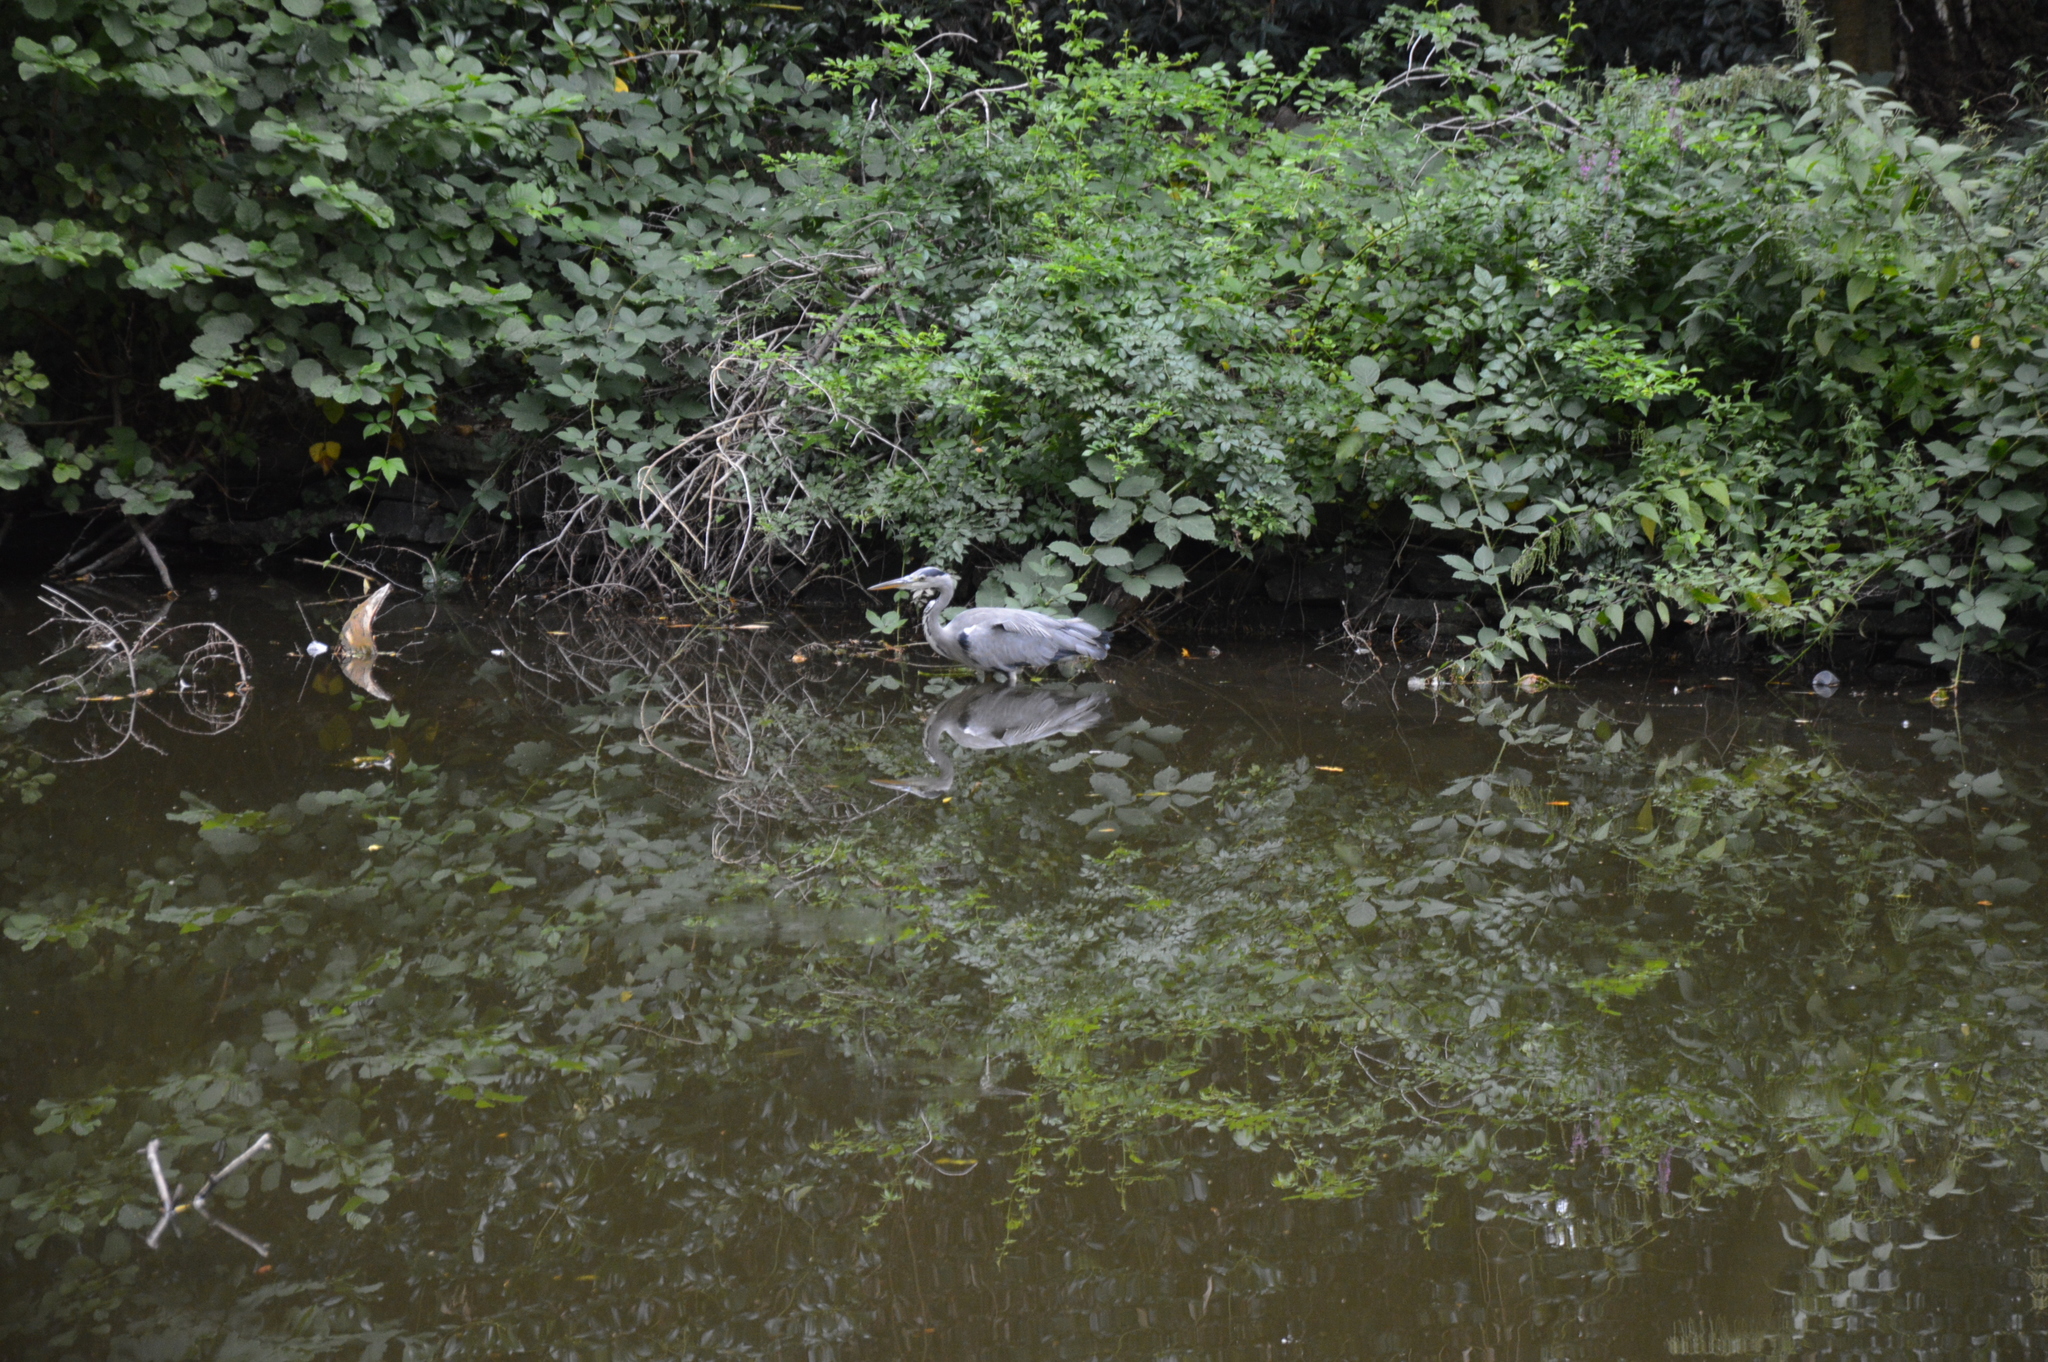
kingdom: Animalia
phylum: Chordata
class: Aves
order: Pelecaniformes
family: Ardeidae
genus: Ardea
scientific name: Ardea cinerea
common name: Grey heron
